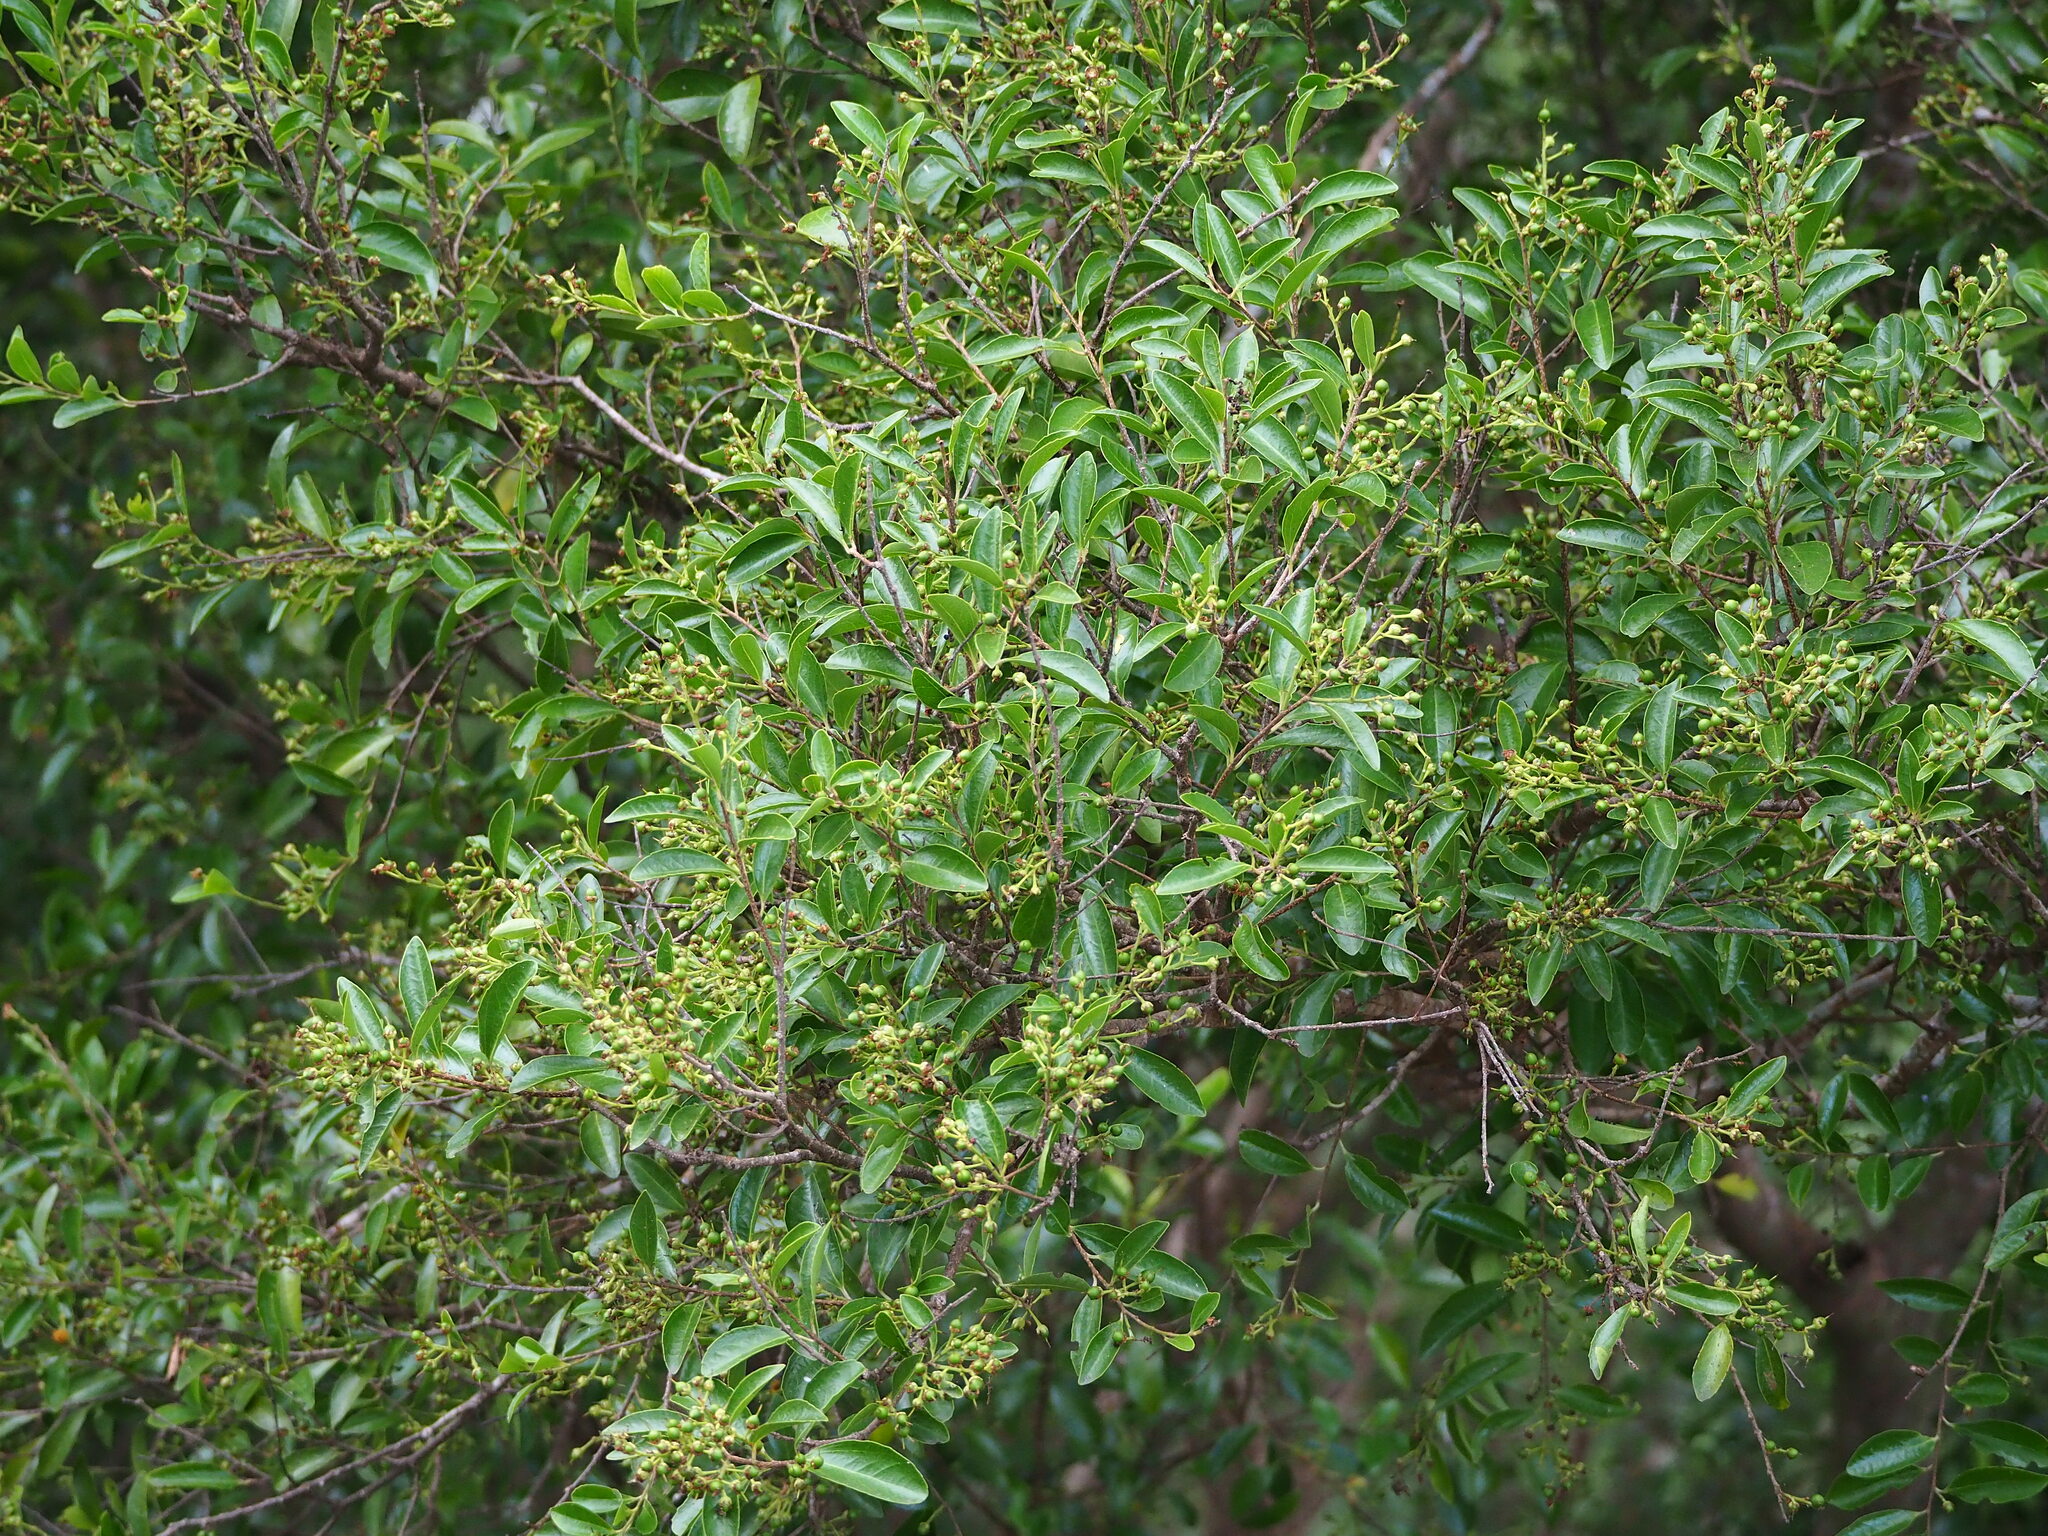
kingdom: Plantae
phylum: Tracheophyta
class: Magnoliopsida
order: Malpighiales
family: Salicaceae
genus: Scolopia
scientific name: Scolopia oldhamii
